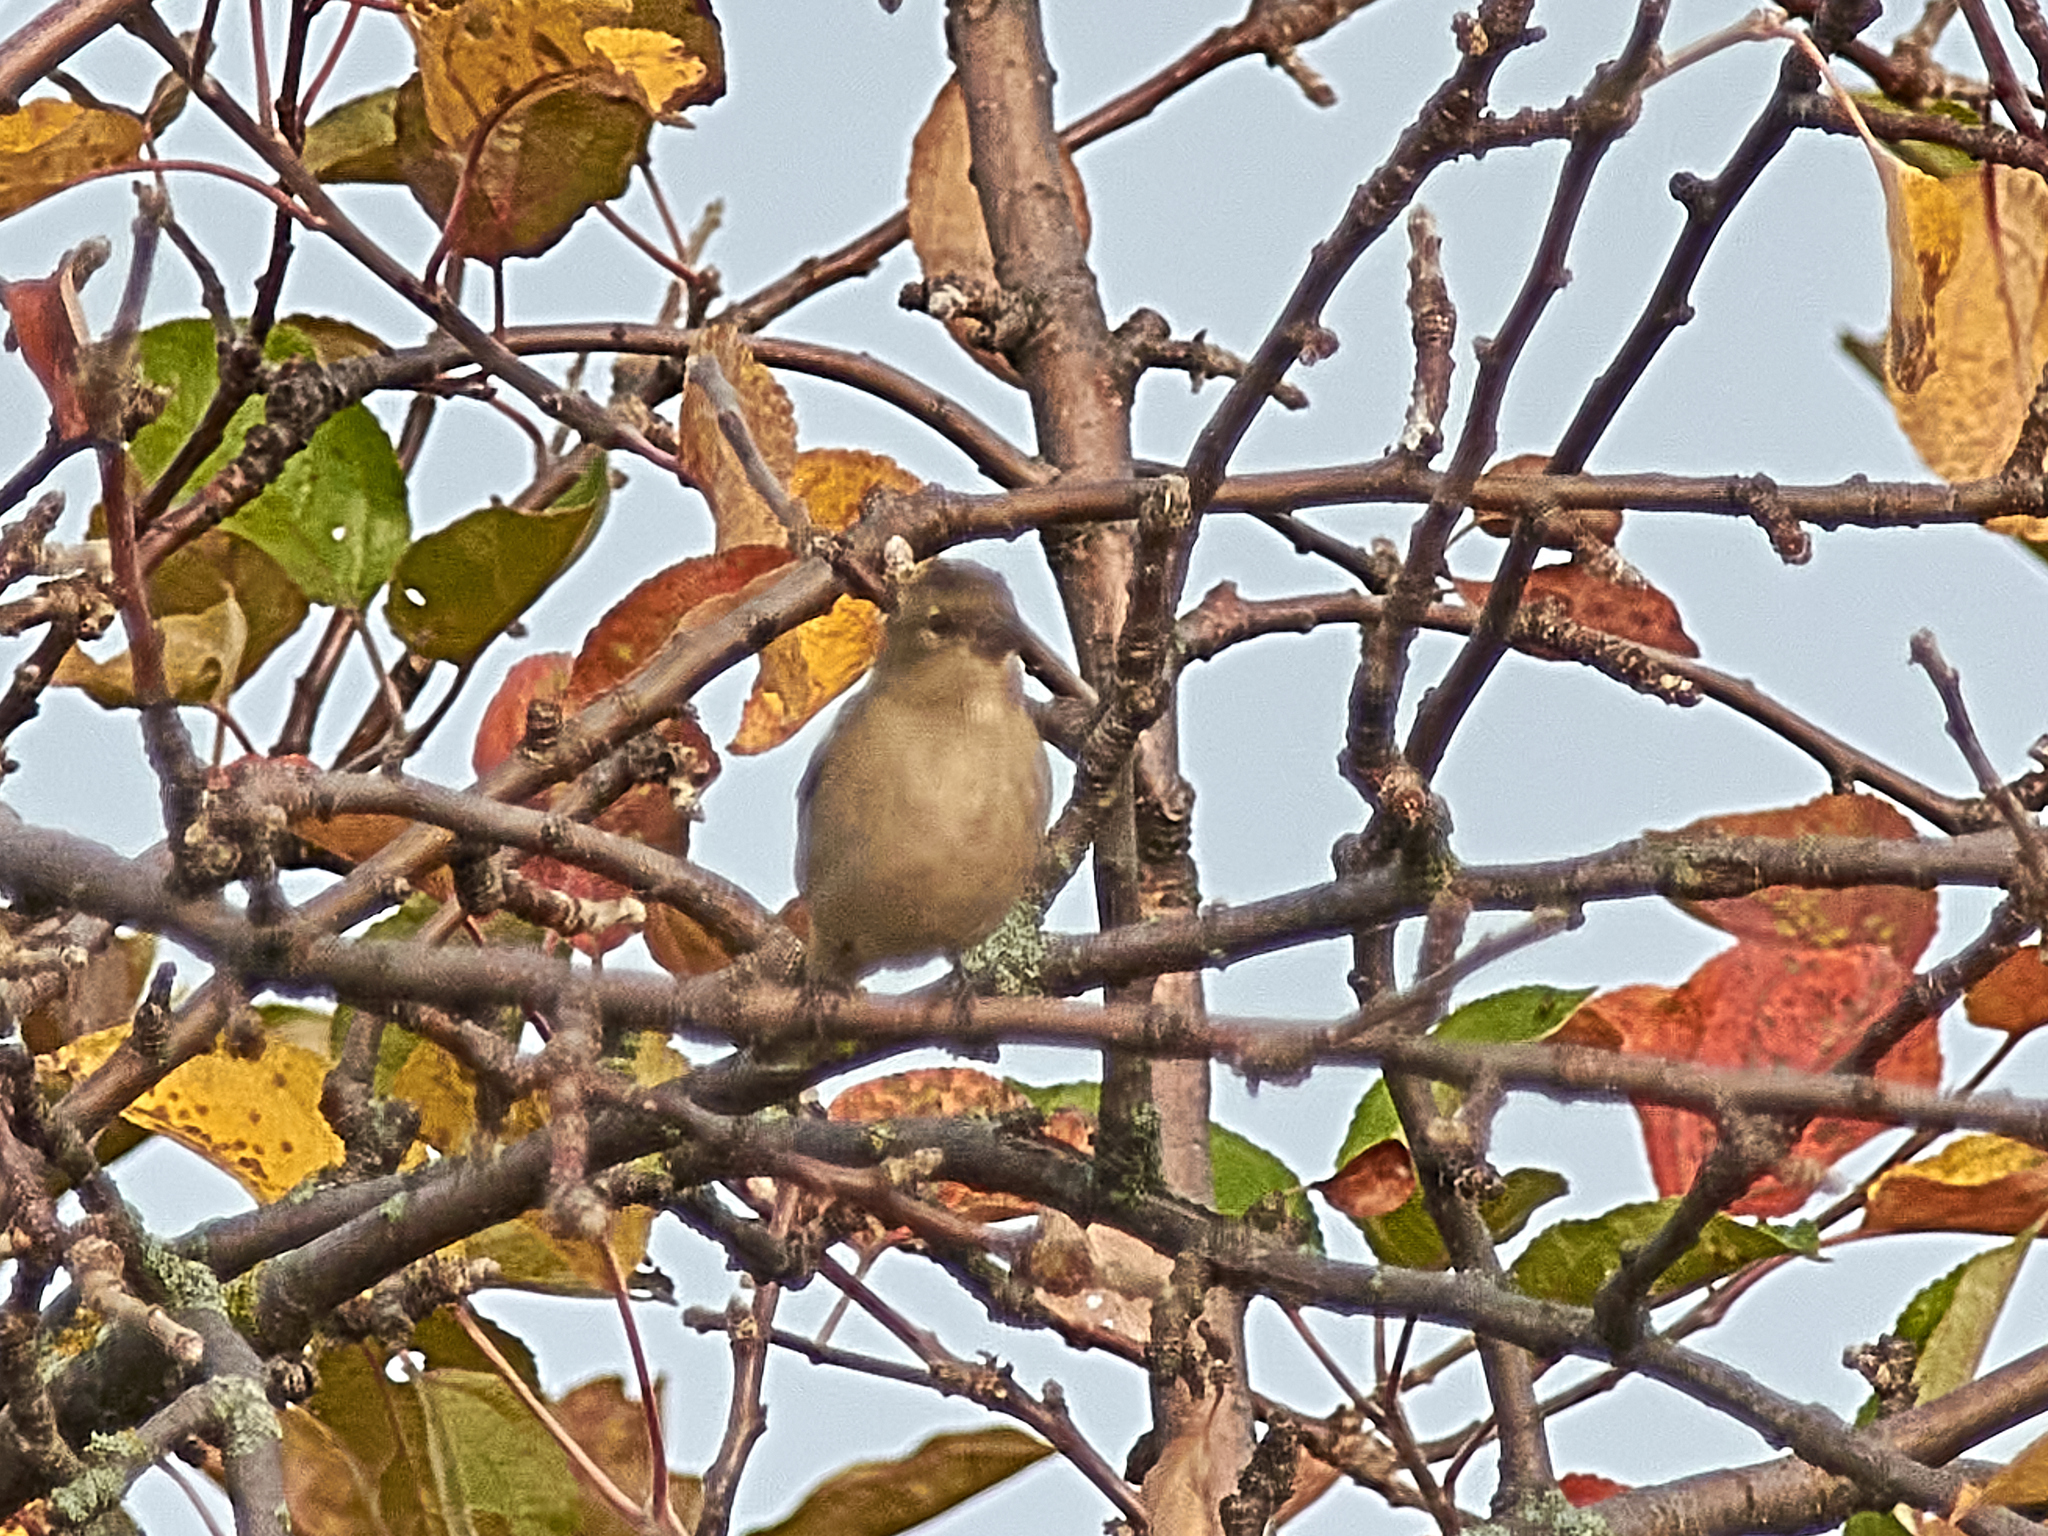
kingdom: Animalia
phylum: Chordata
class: Aves
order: Passeriformes
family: Fringillidae
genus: Fringilla
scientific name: Fringilla coelebs
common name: Common chaffinch
